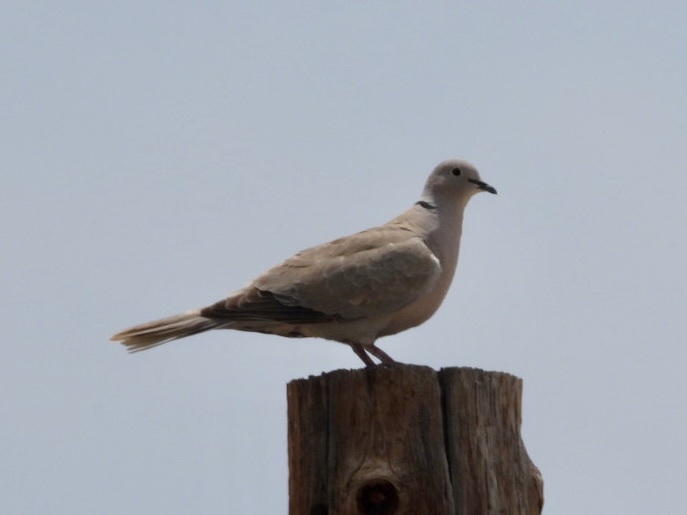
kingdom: Animalia
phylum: Chordata
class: Aves
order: Columbiformes
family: Columbidae
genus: Streptopelia
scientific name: Streptopelia decaocto
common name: Eurasian collared dove
